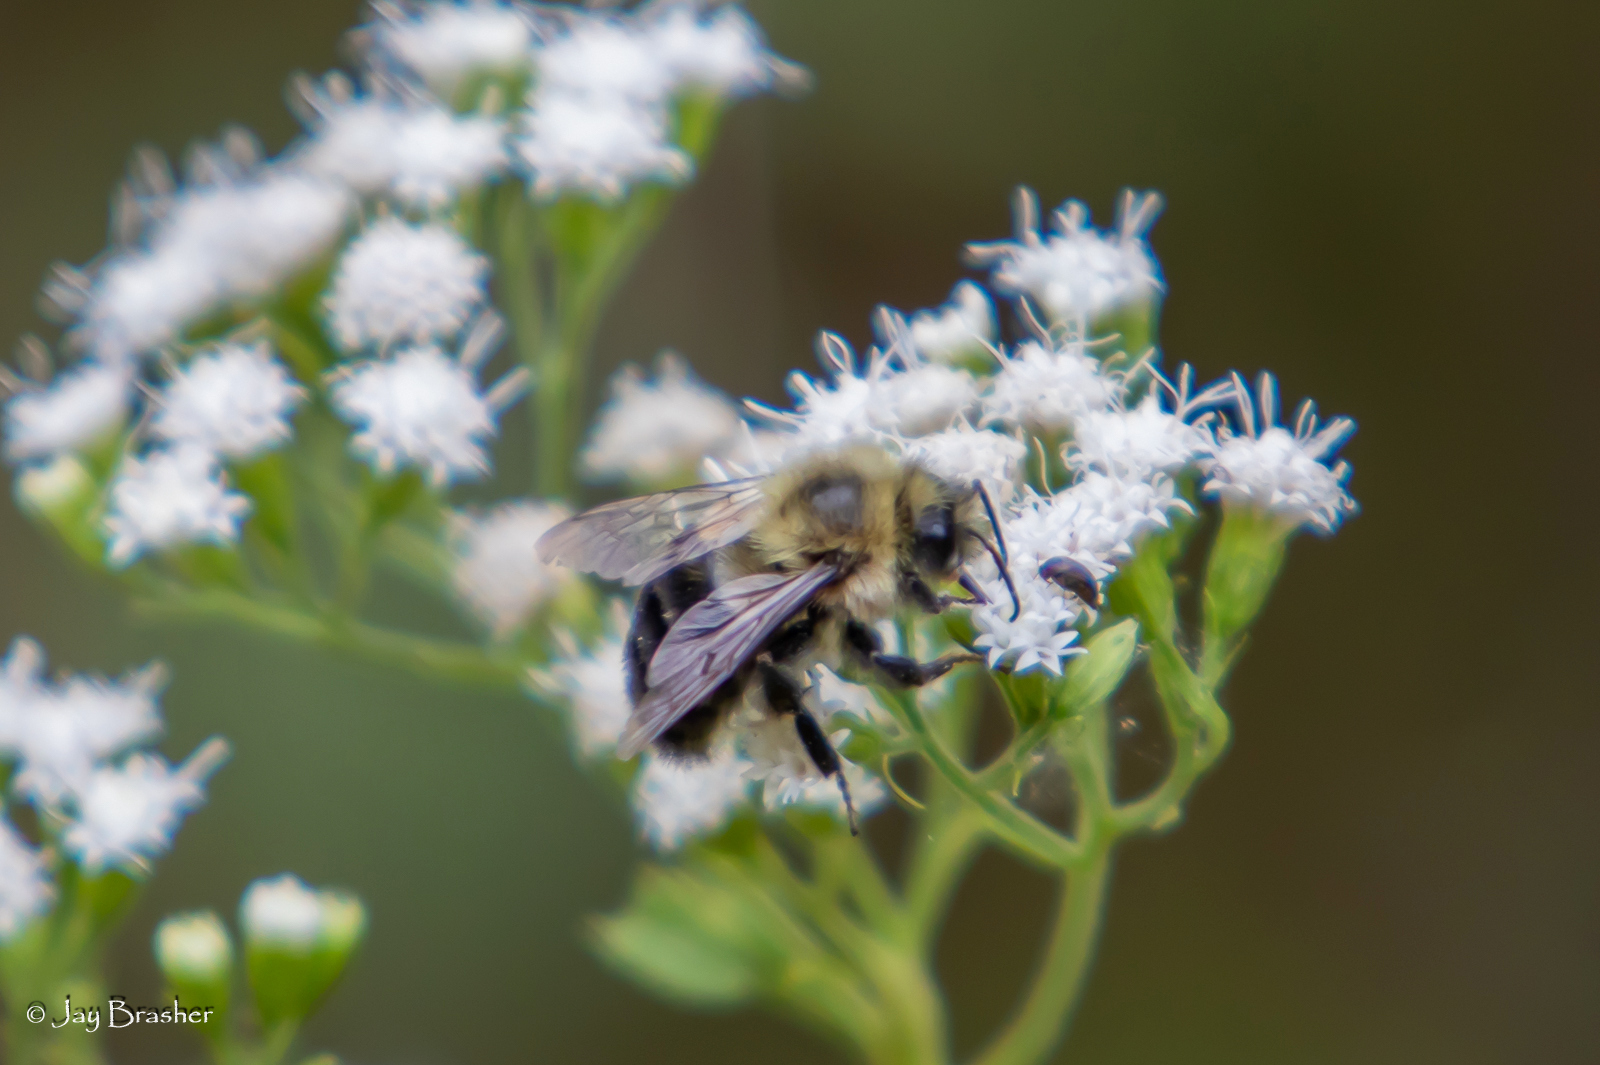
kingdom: Animalia
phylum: Arthropoda
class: Insecta
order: Hymenoptera
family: Apidae
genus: Bombus
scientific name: Bombus impatiens
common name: Common eastern bumble bee
